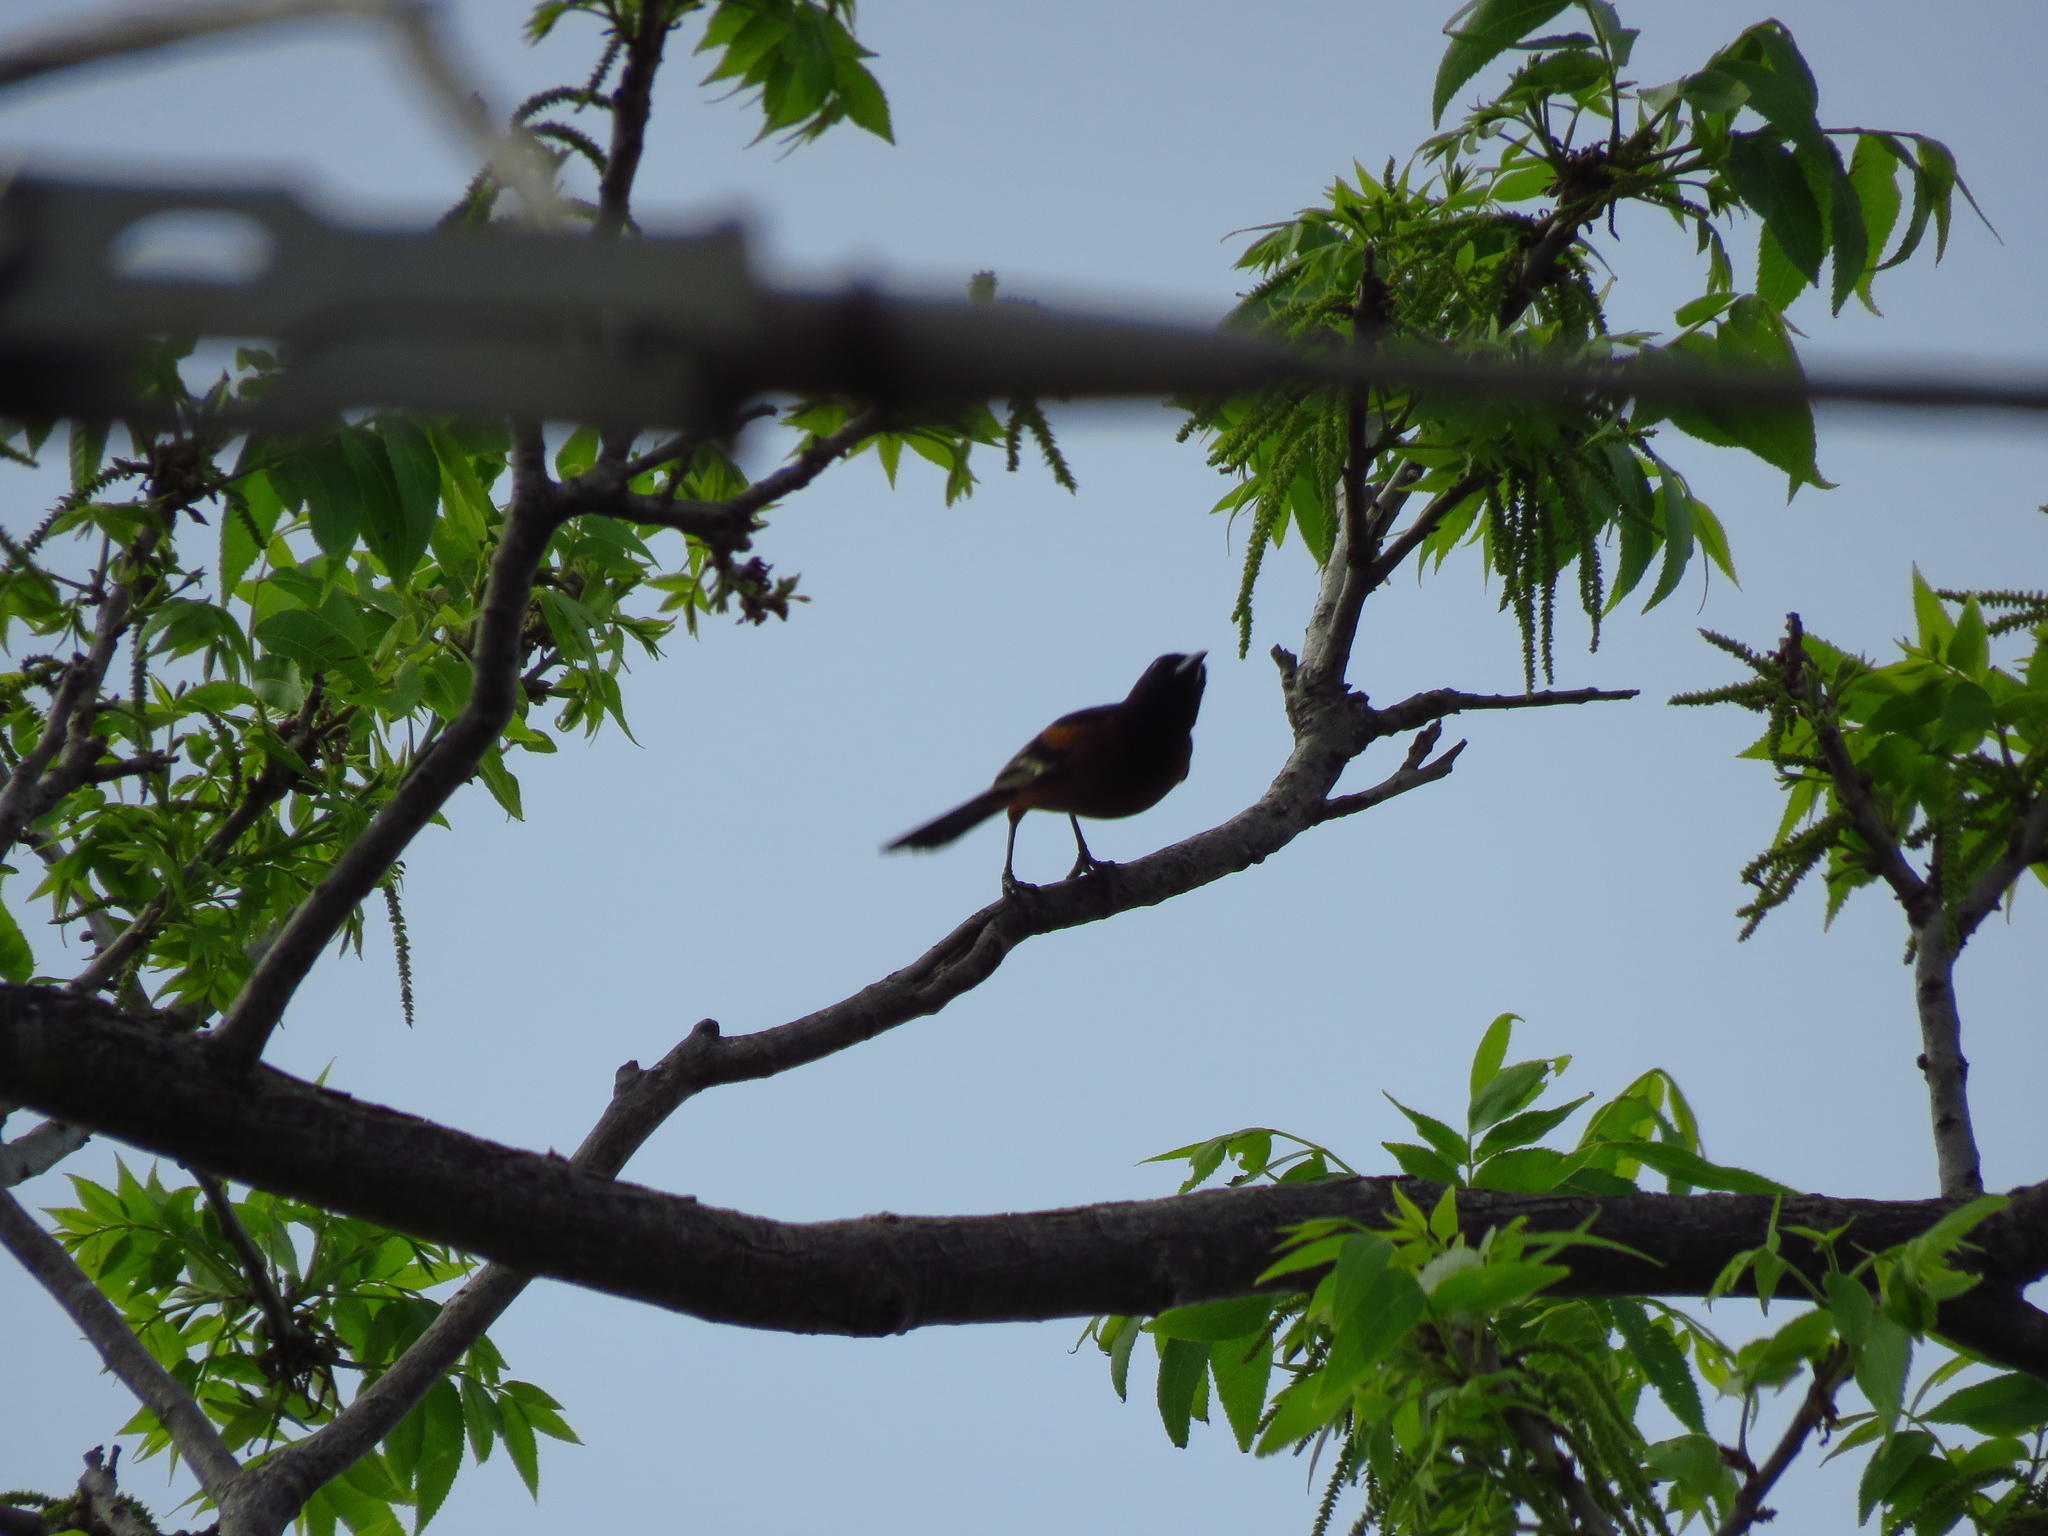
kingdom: Animalia
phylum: Chordata
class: Aves
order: Passeriformes
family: Icteridae
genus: Icterus
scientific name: Icterus spurius
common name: Orchard oriole
